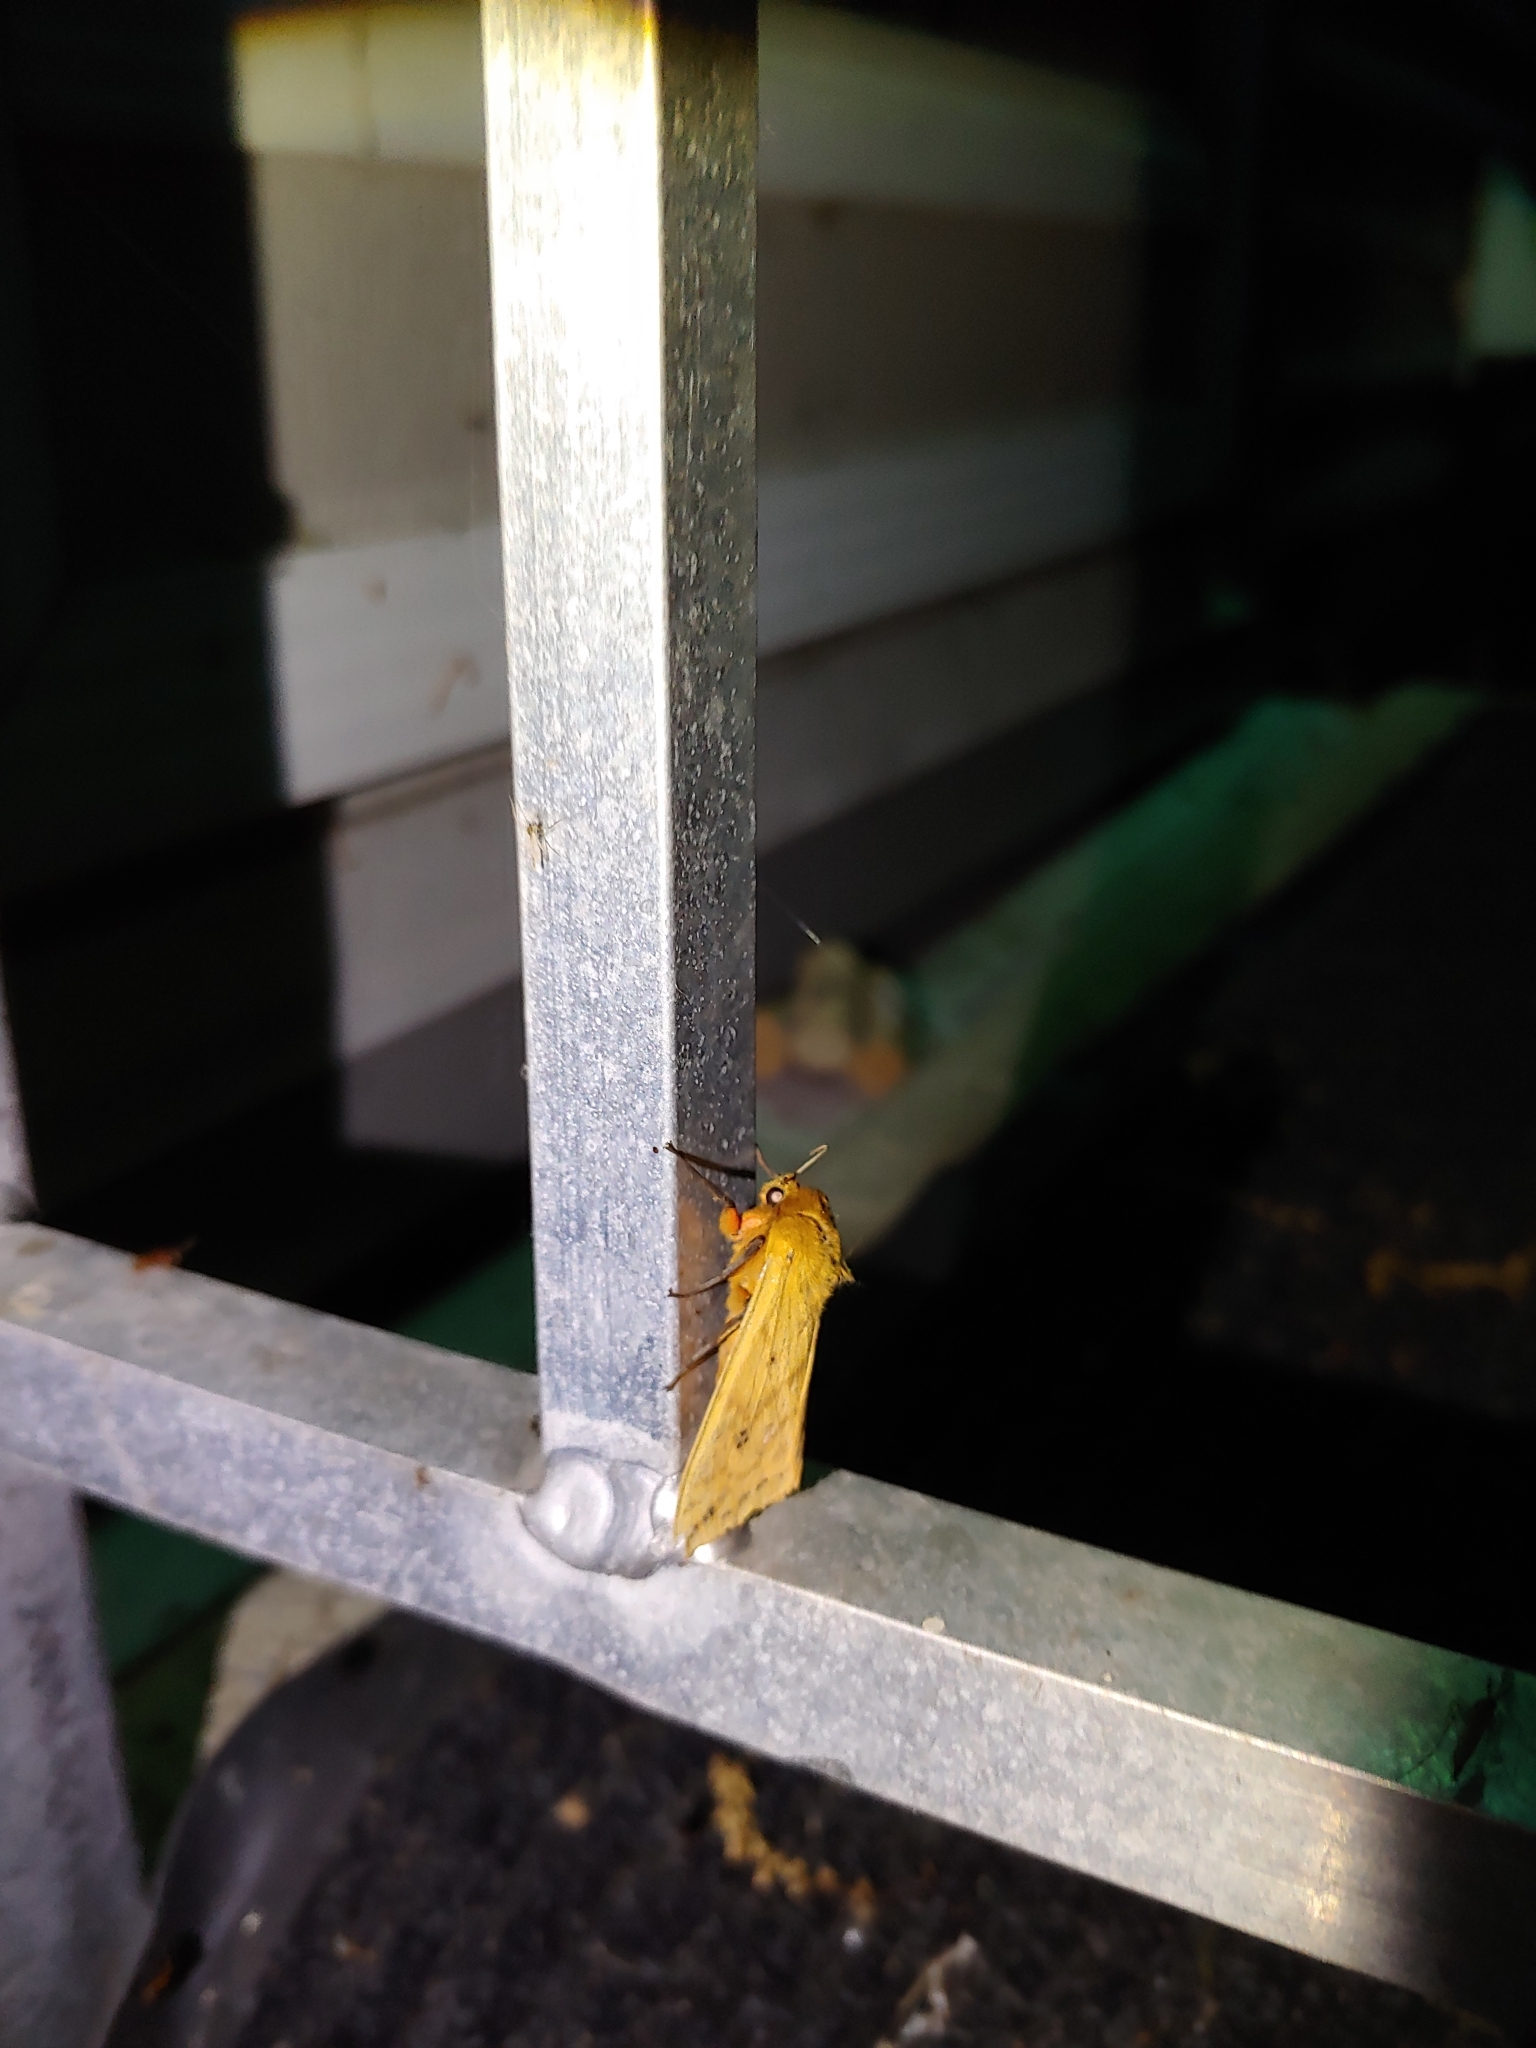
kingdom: Animalia
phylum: Arthropoda
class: Insecta
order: Lepidoptera
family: Erebidae
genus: Pyrrharctia
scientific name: Pyrrharctia isabella
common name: Isabella tiger moth
